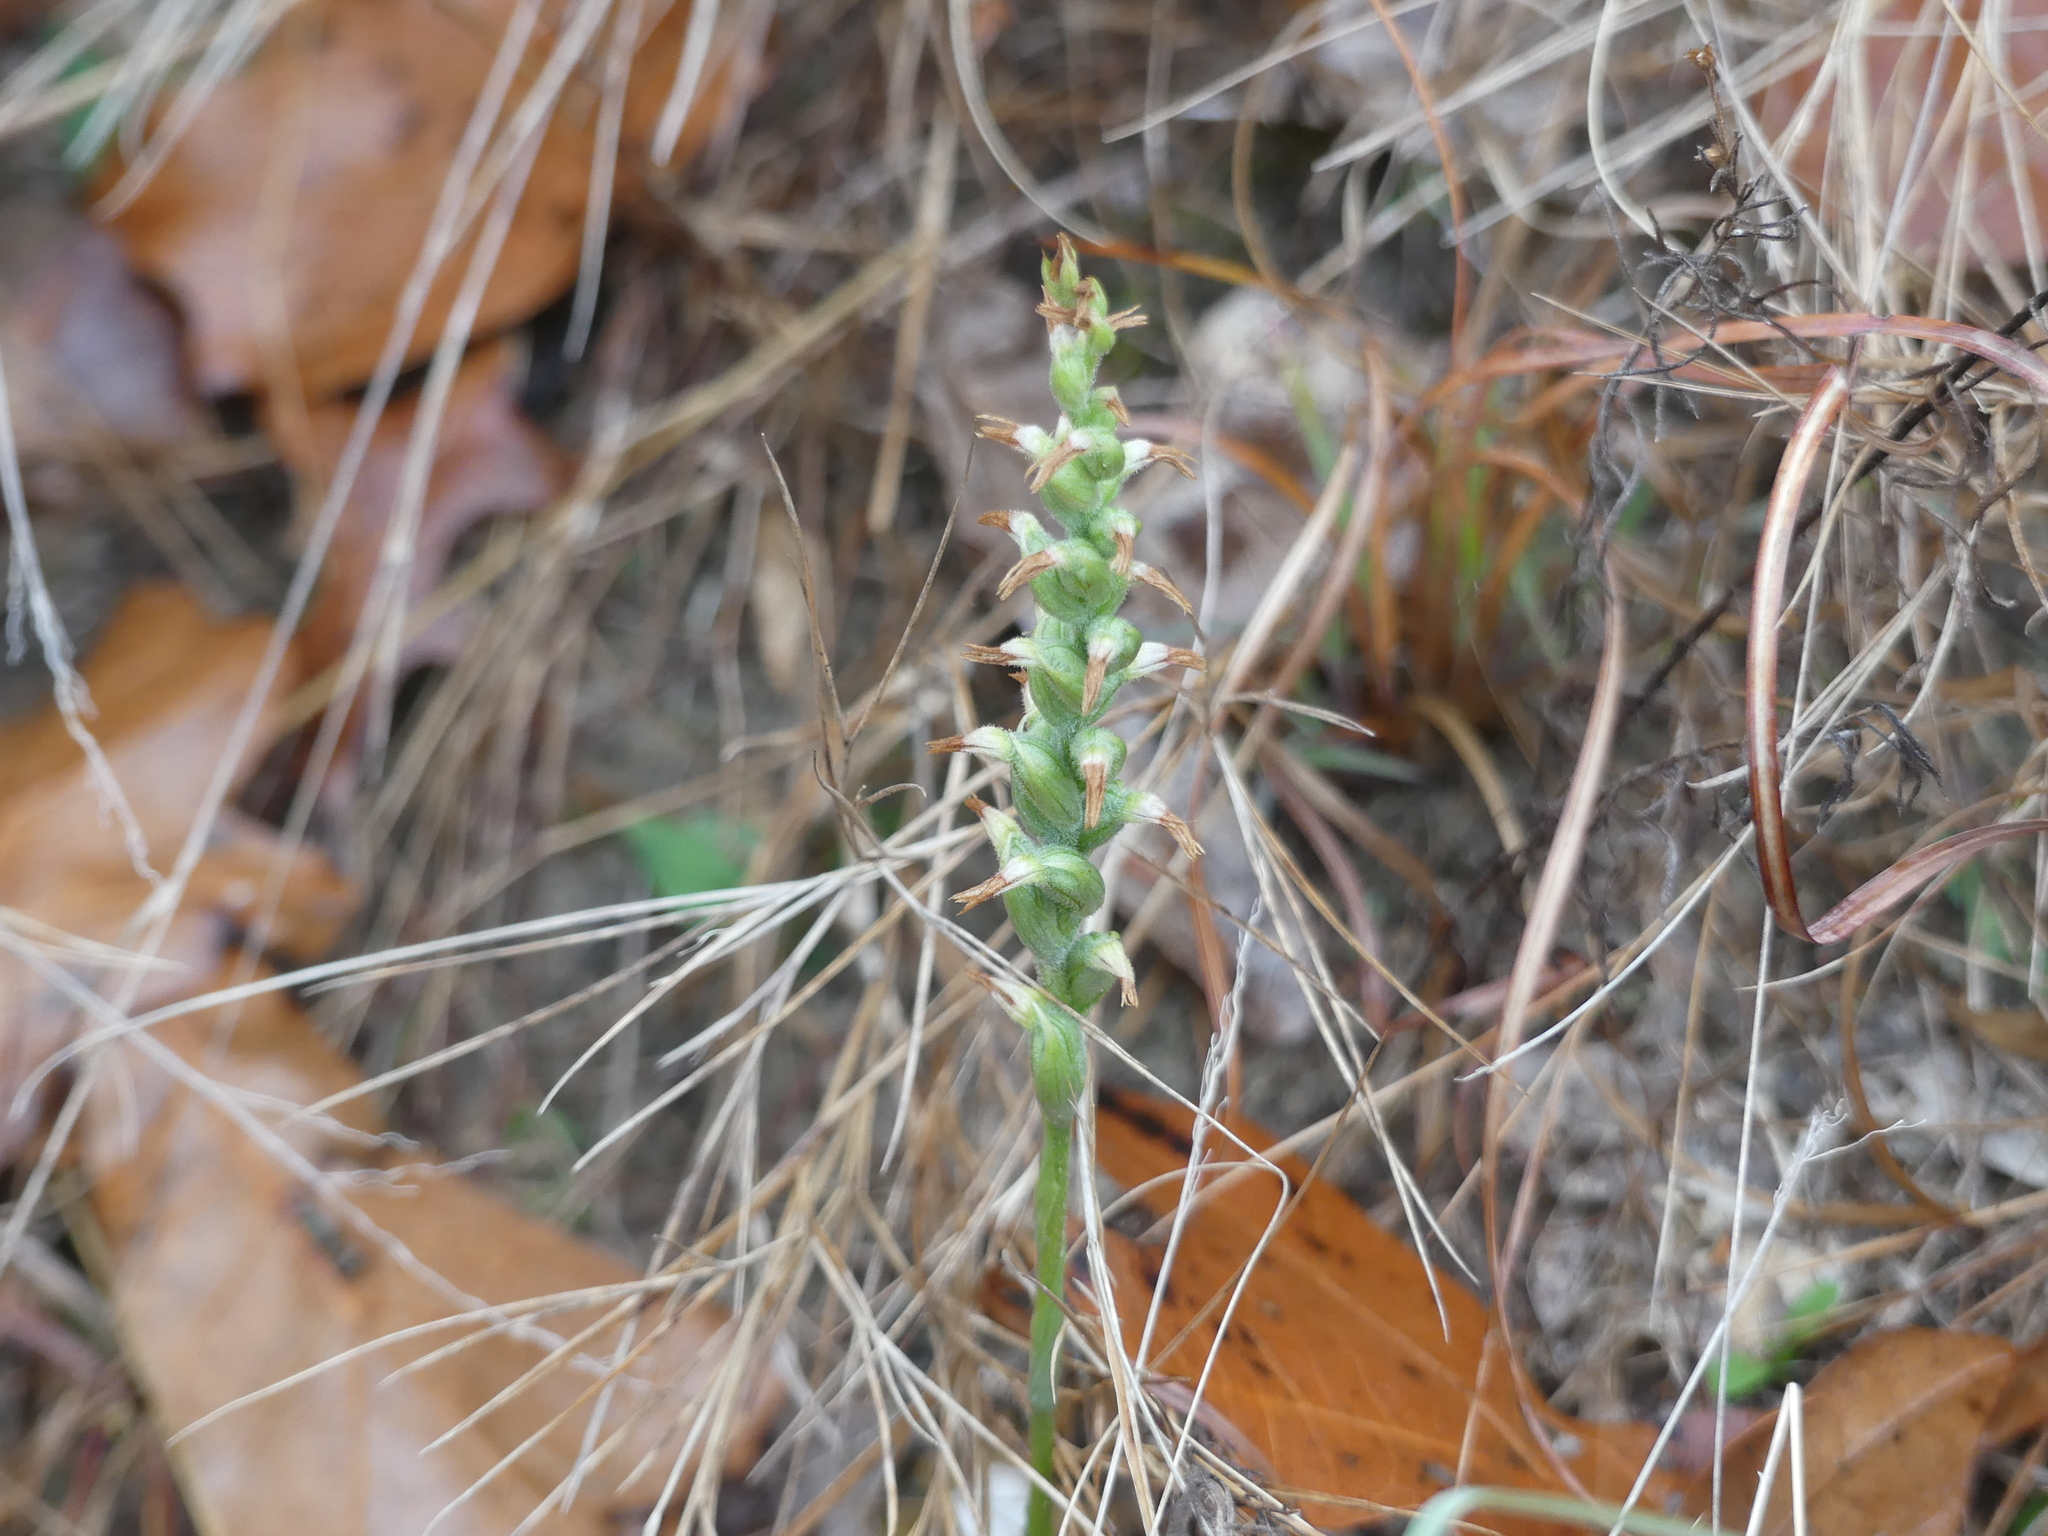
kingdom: Plantae
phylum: Tracheophyta
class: Liliopsida
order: Asparagales
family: Orchidaceae
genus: Spiranthes
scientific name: Spiranthes lacera
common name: Northern slender ladies'-tresses
